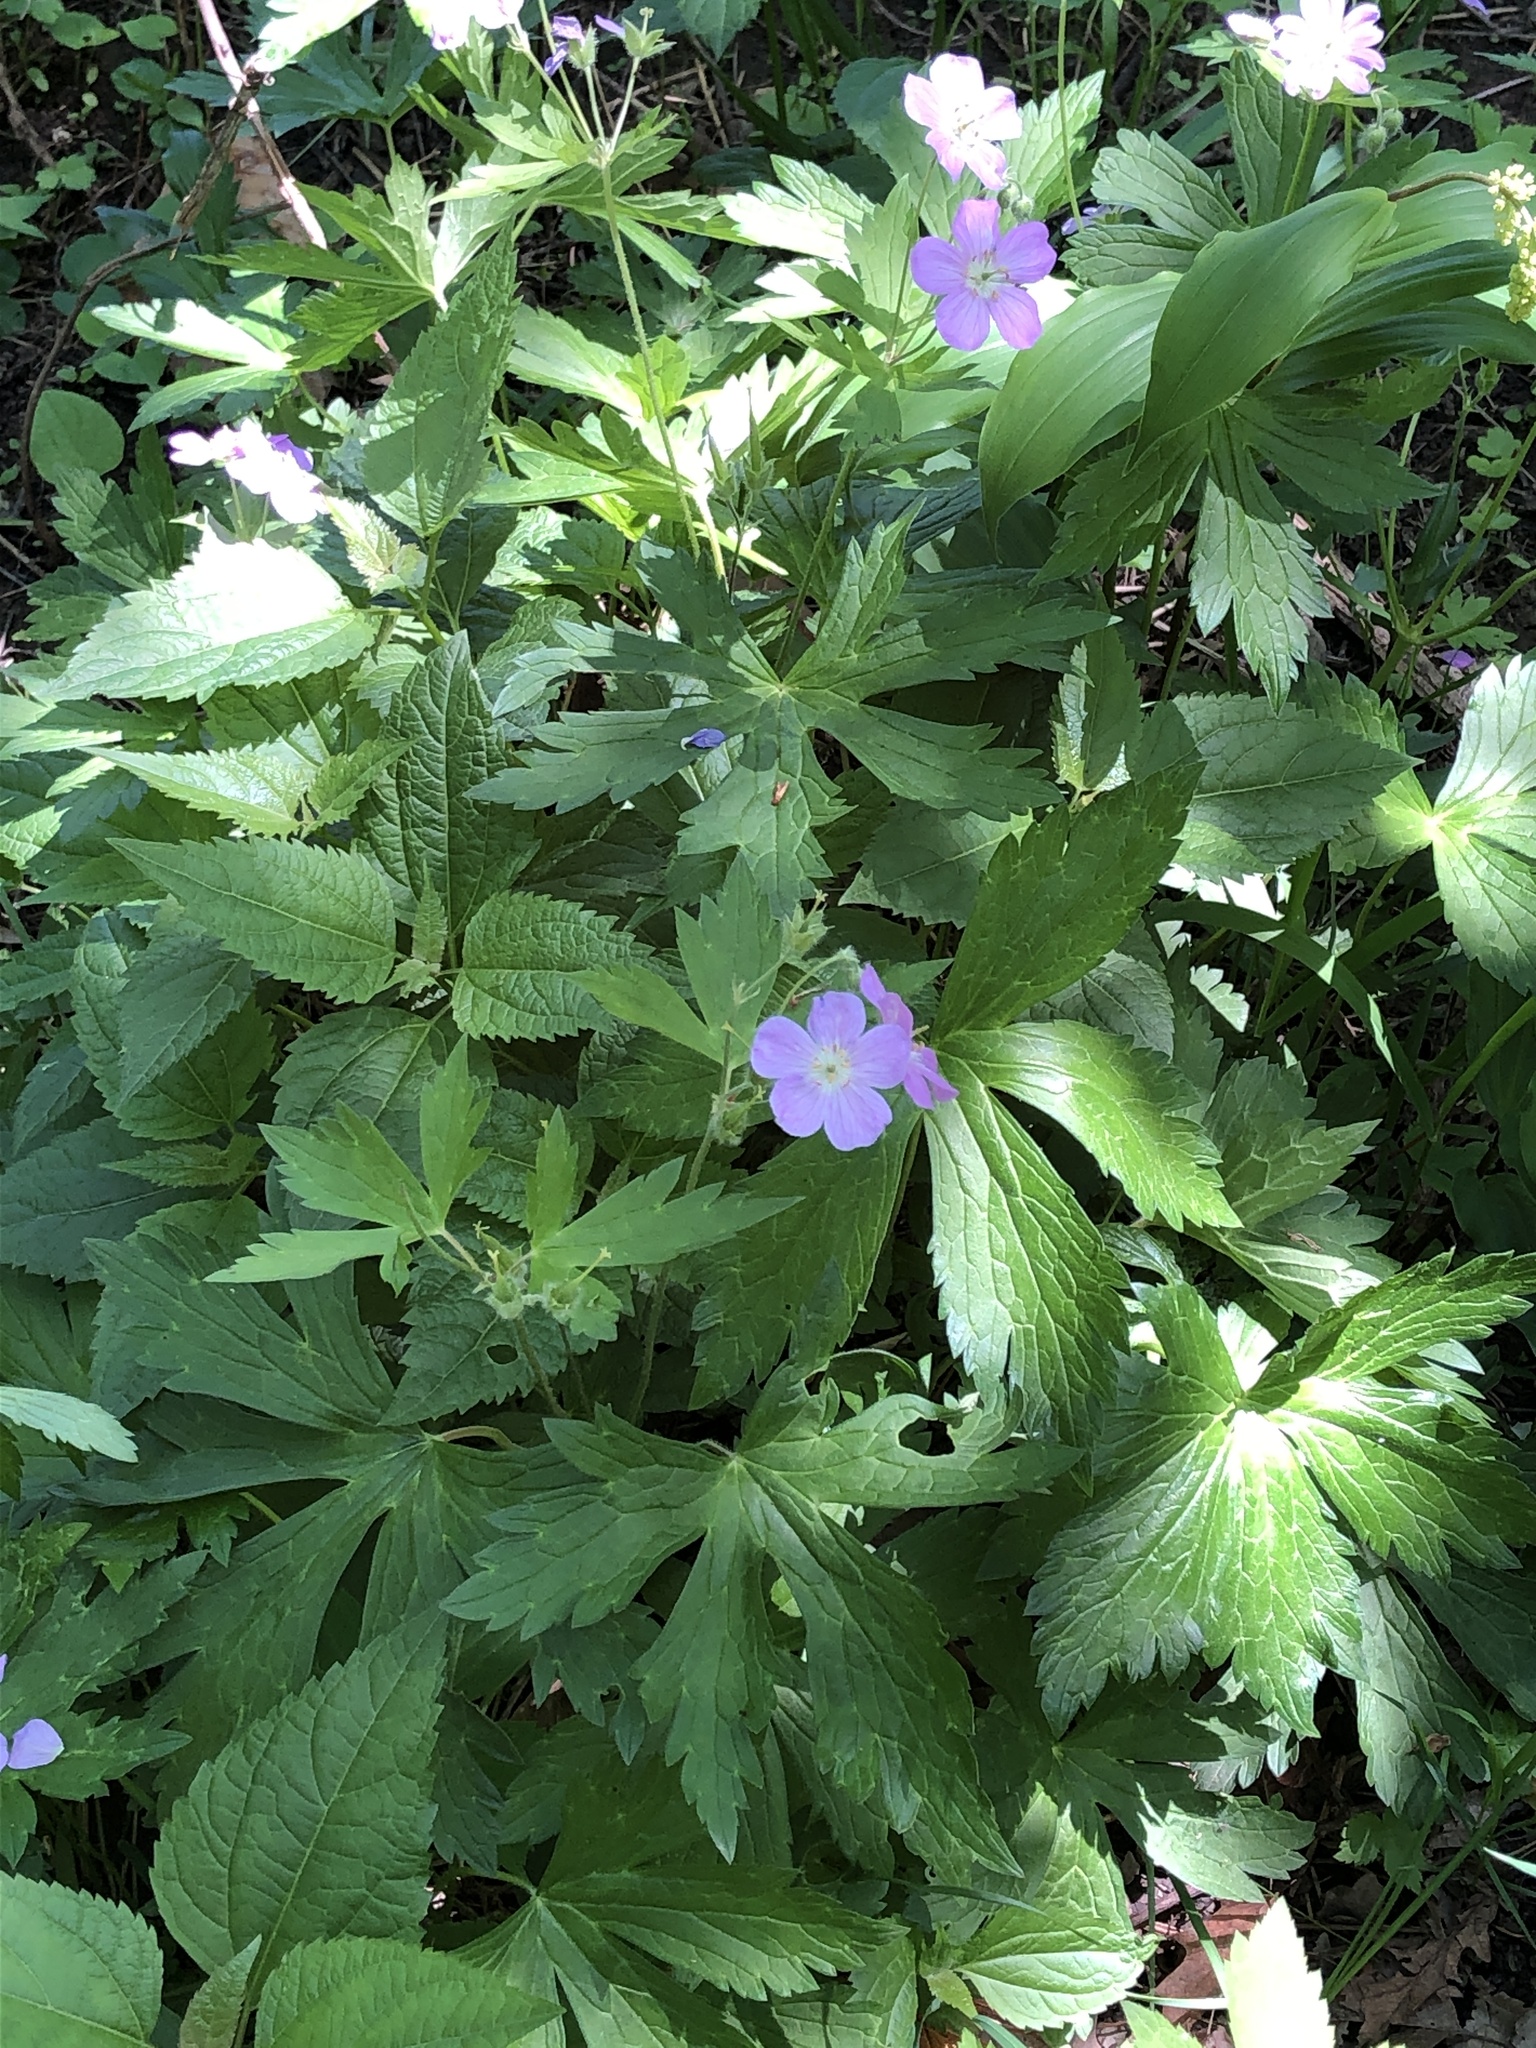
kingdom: Plantae
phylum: Tracheophyta
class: Magnoliopsida
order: Geraniales
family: Geraniaceae
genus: Geranium
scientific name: Geranium maculatum
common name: Spotted geranium
